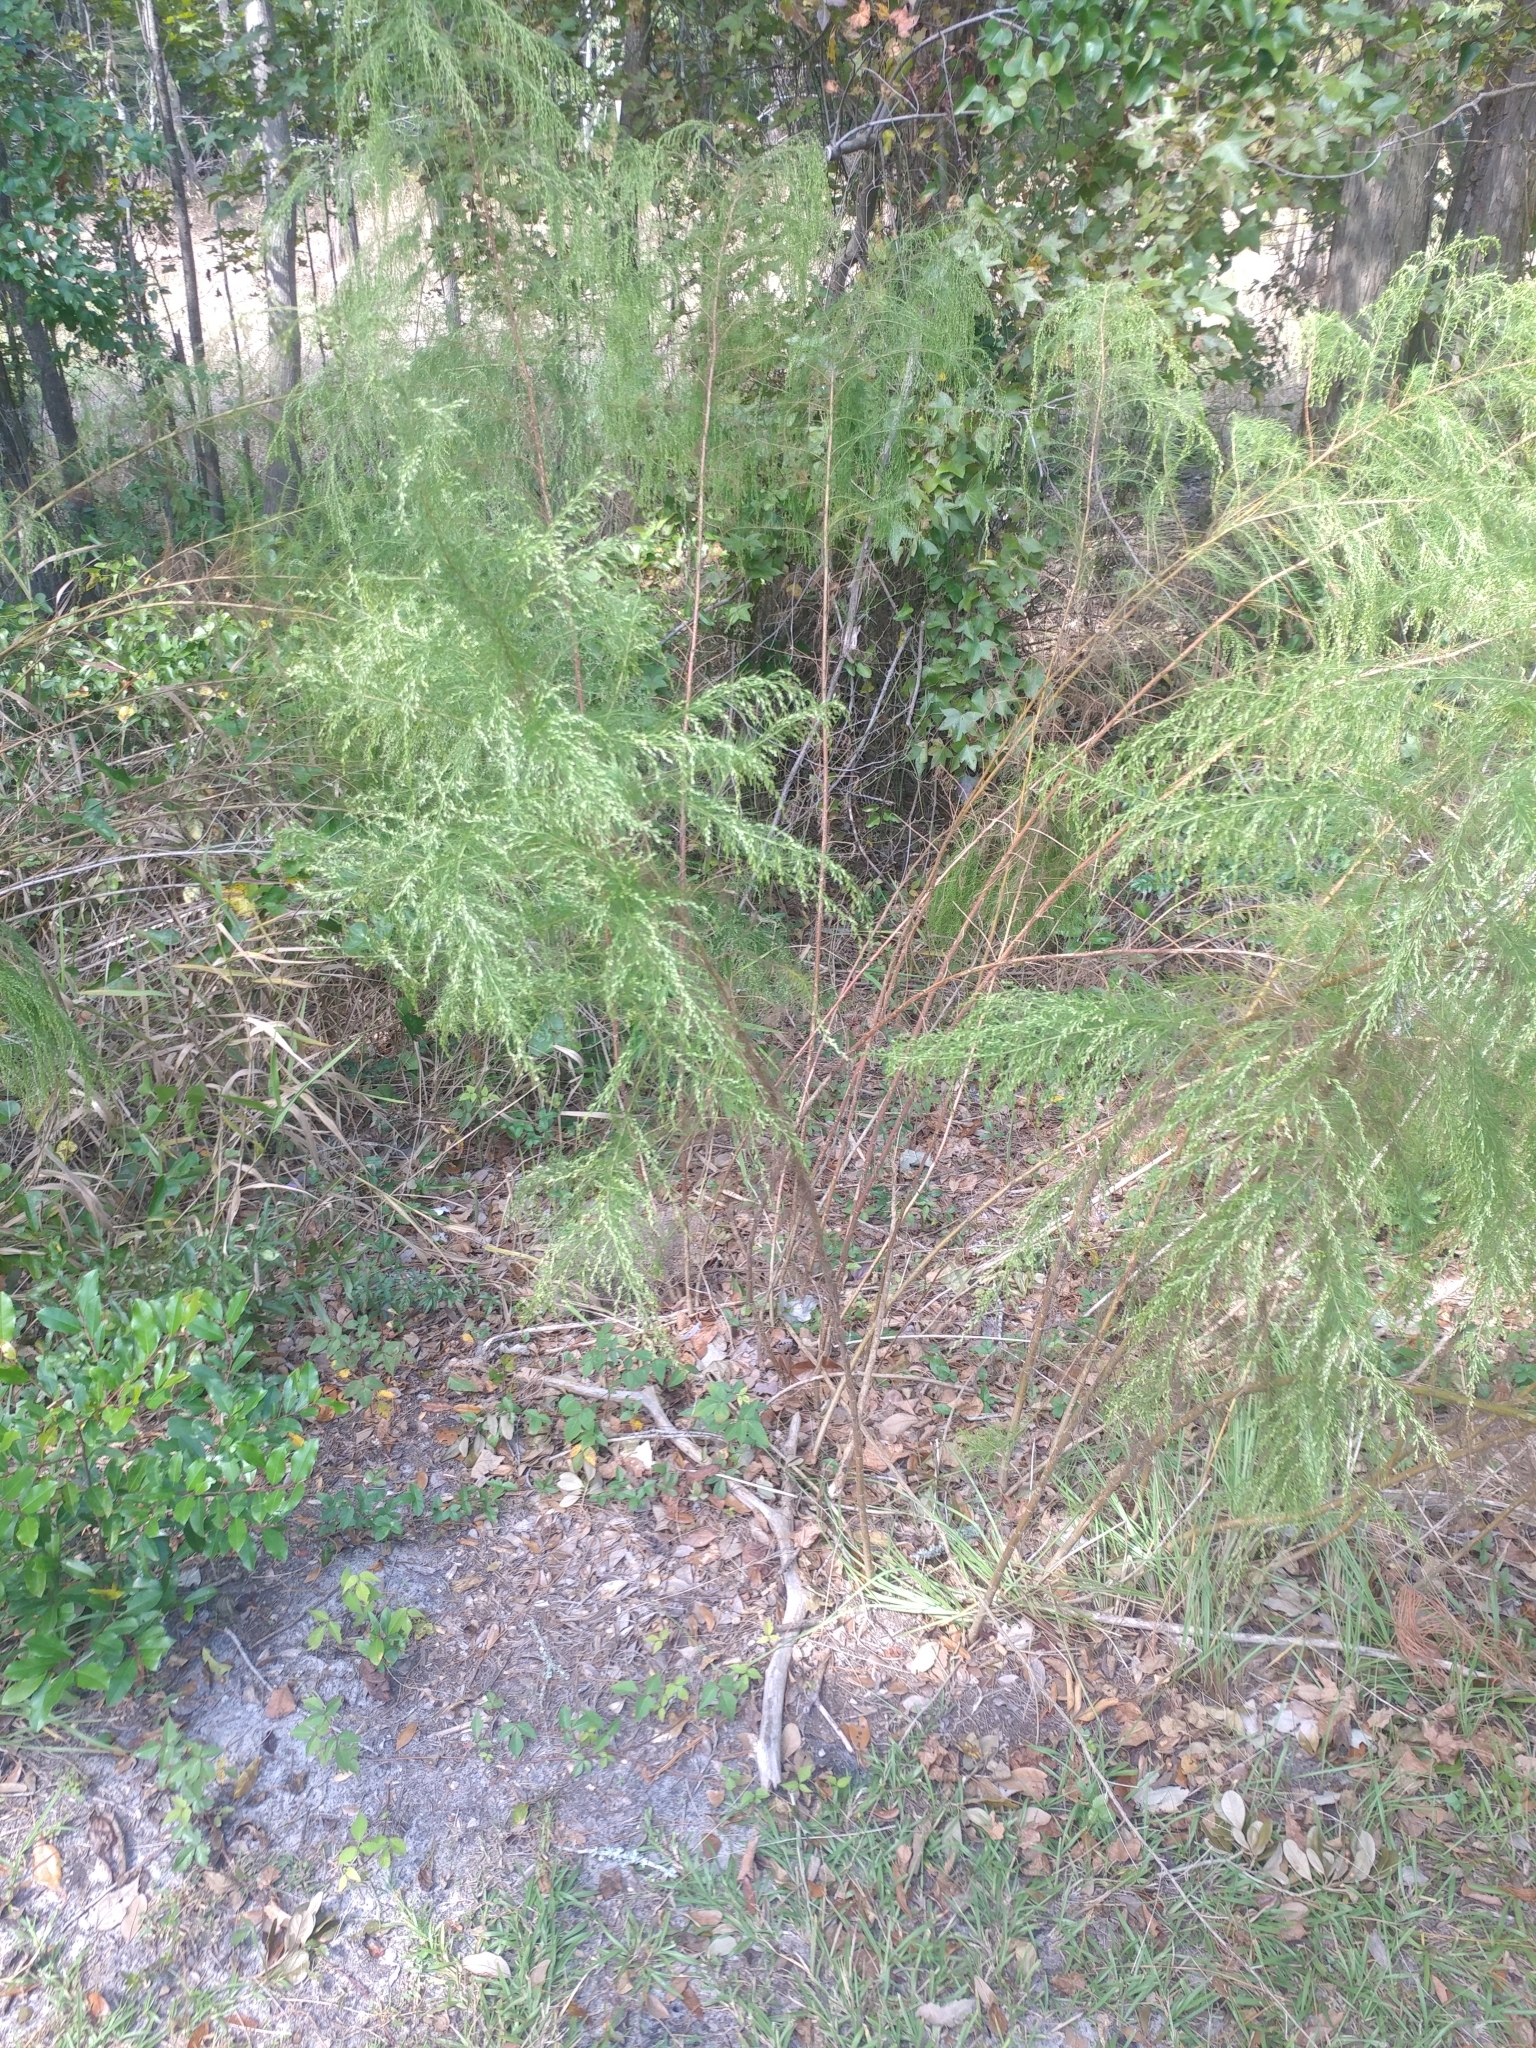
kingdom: Plantae
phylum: Tracheophyta
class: Magnoliopsida
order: Asterales
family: Asteraceae
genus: Eupatorium
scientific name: Eupatorium capillifolium
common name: Dog-fennel
